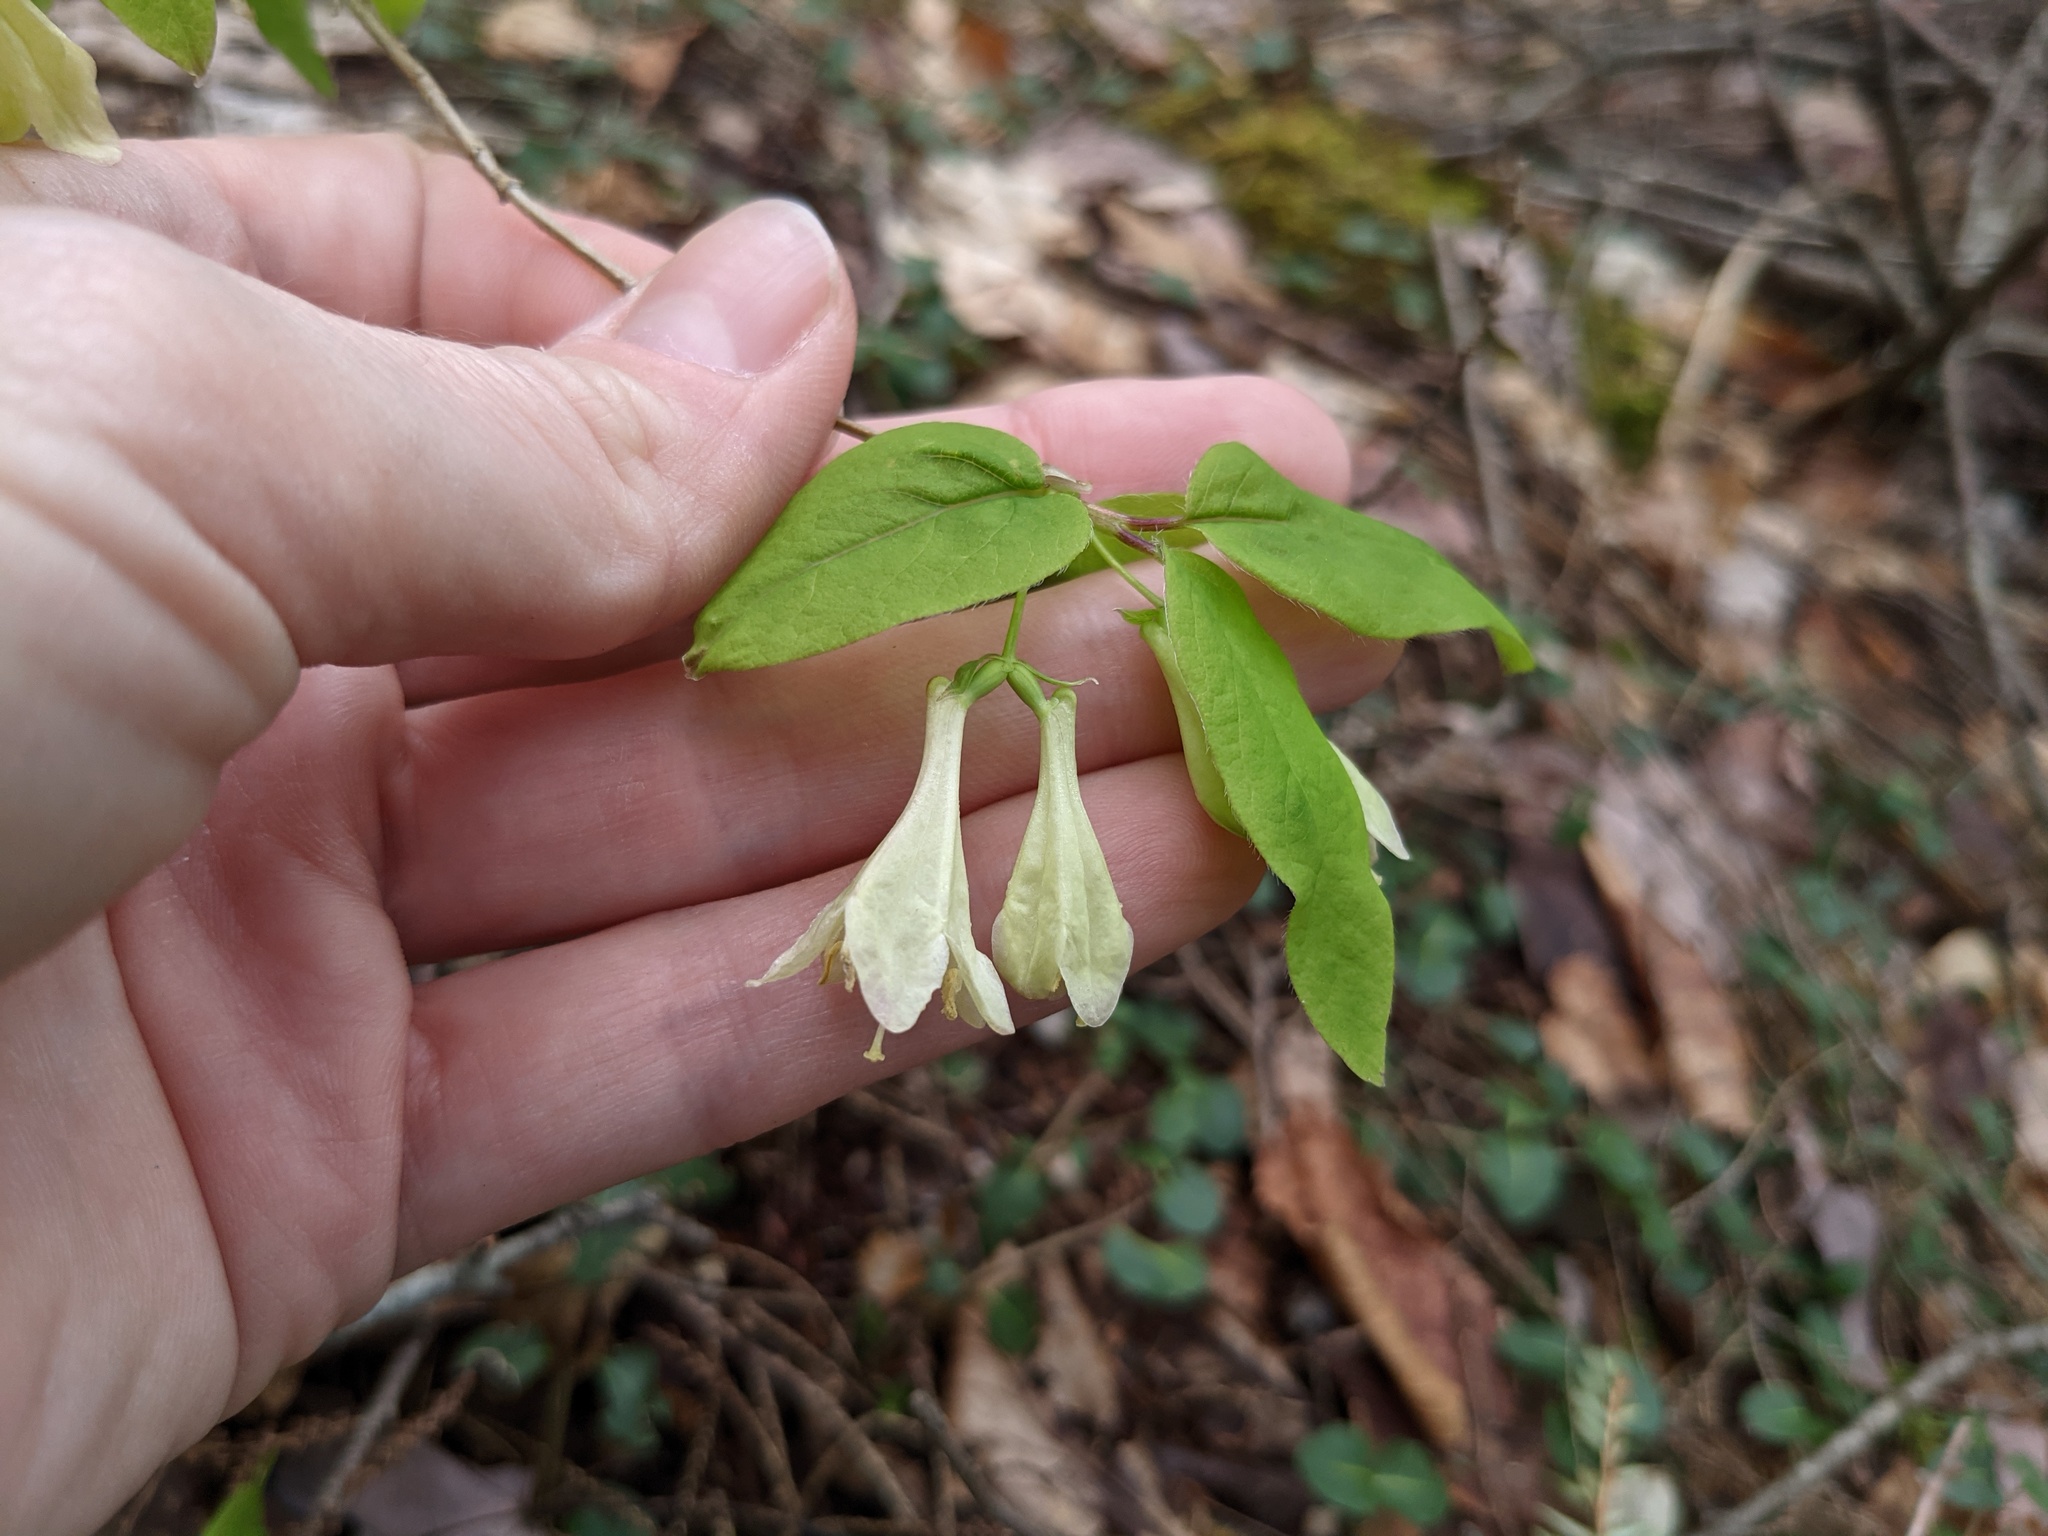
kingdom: Plantae
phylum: Tracheophyta
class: Magnoliopsida
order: Dipsacales
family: Caprifoliaceae
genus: Lonicera
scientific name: Lonicera canadensis
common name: American fly-honeysuckle
